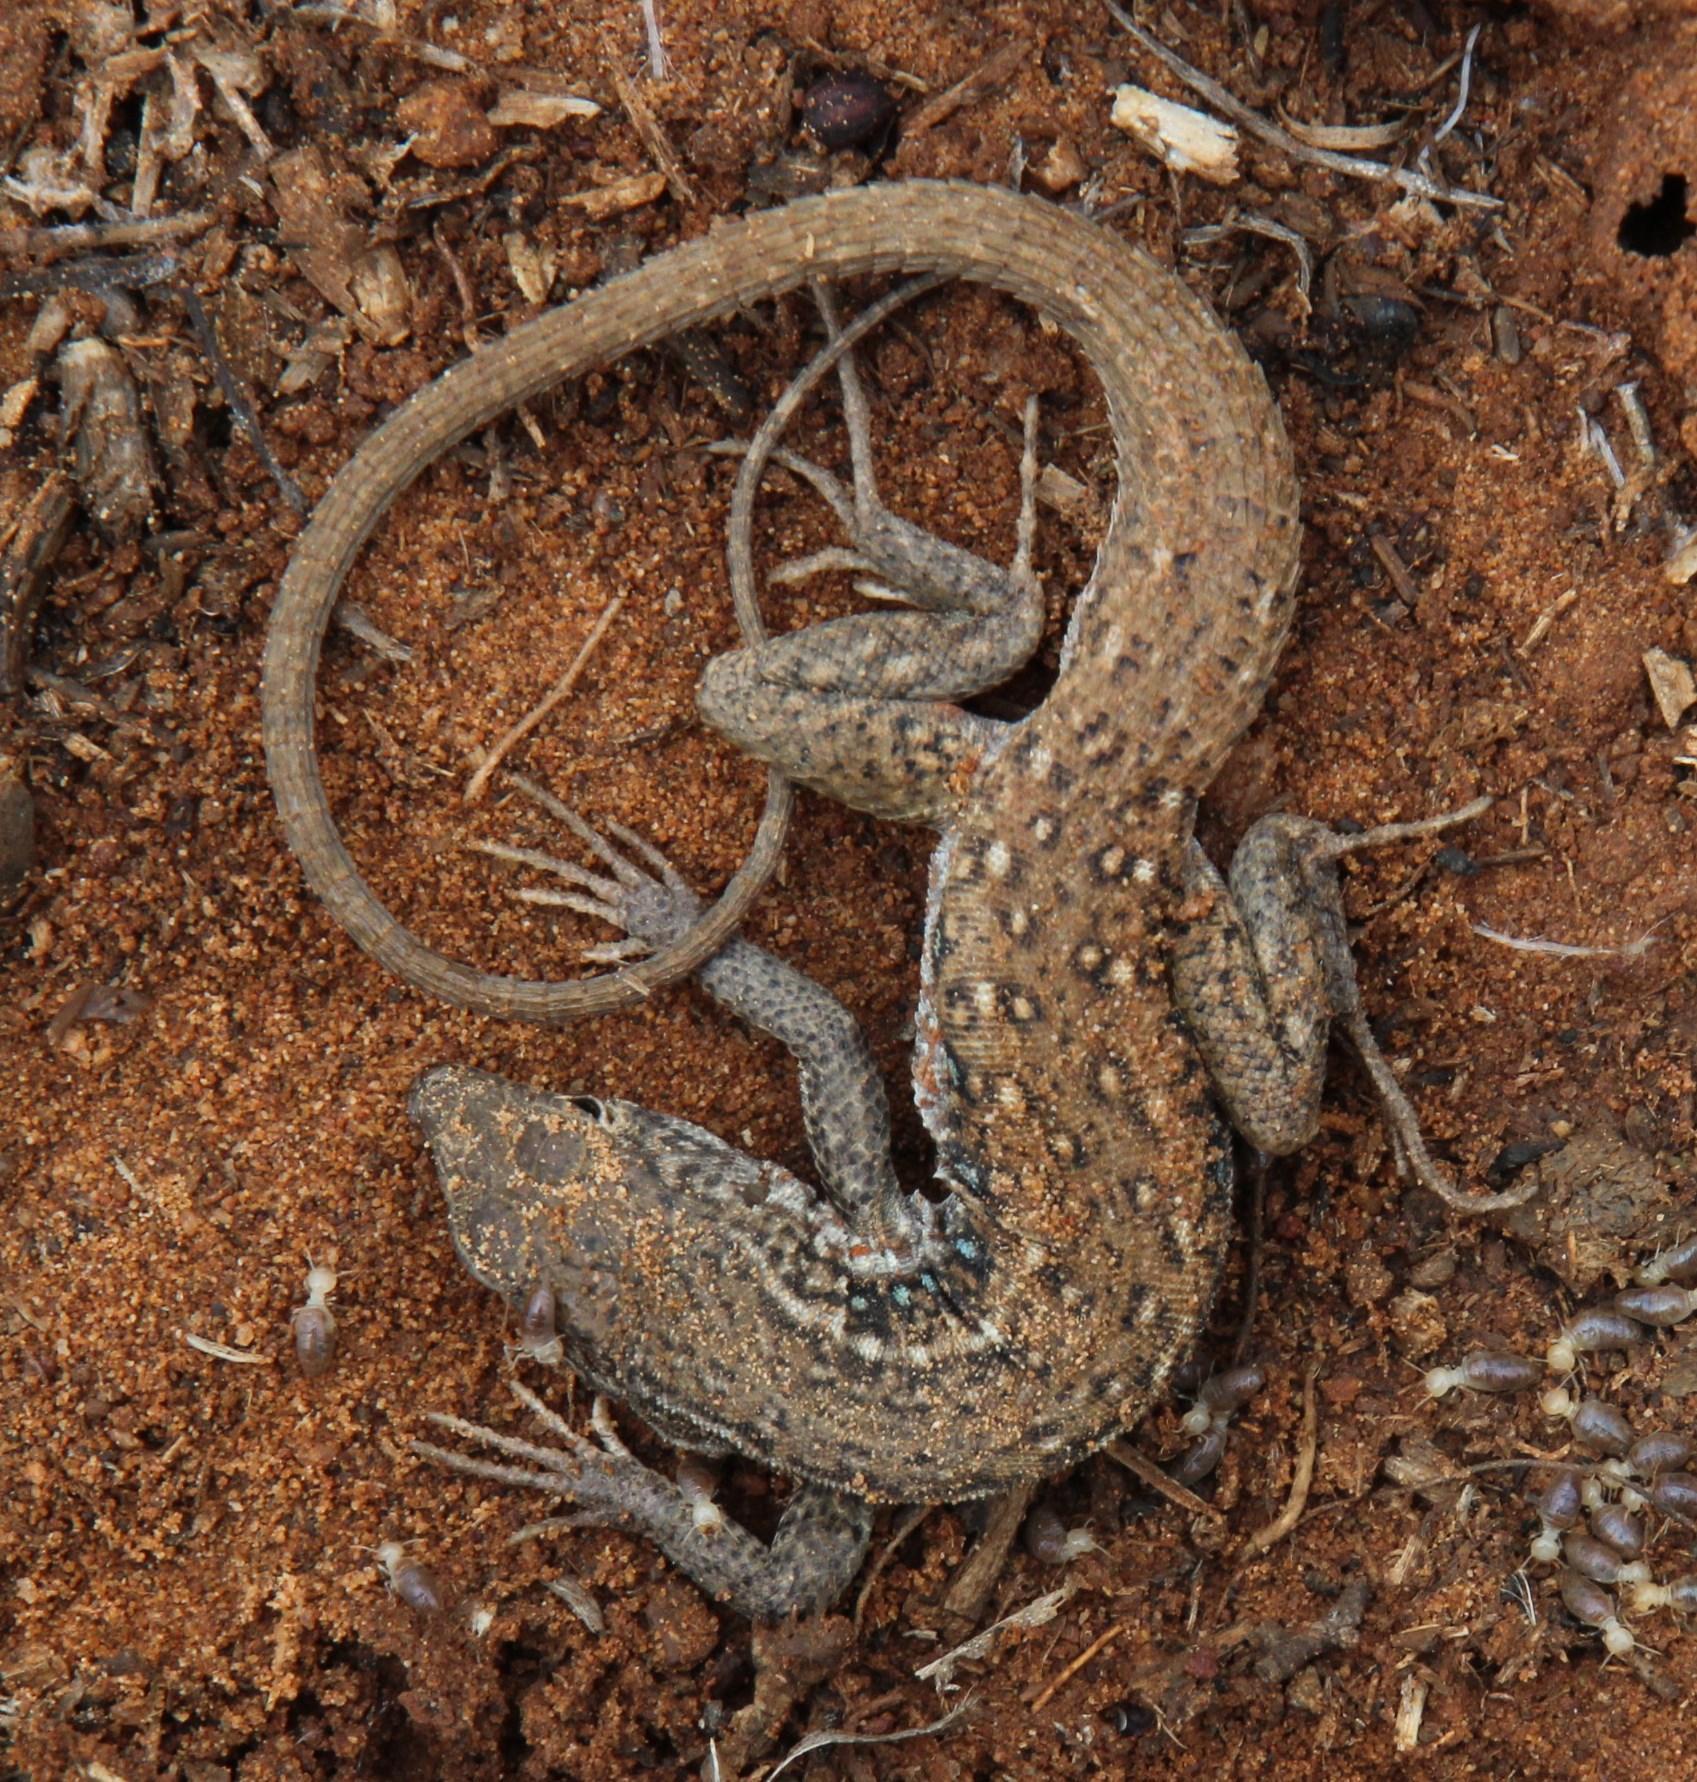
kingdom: Animalia
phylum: Chordata
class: Squamata
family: Lacertidae
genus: Pedioplanis
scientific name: Pedioplanis lineoocellata
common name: Spotted sand lizard
